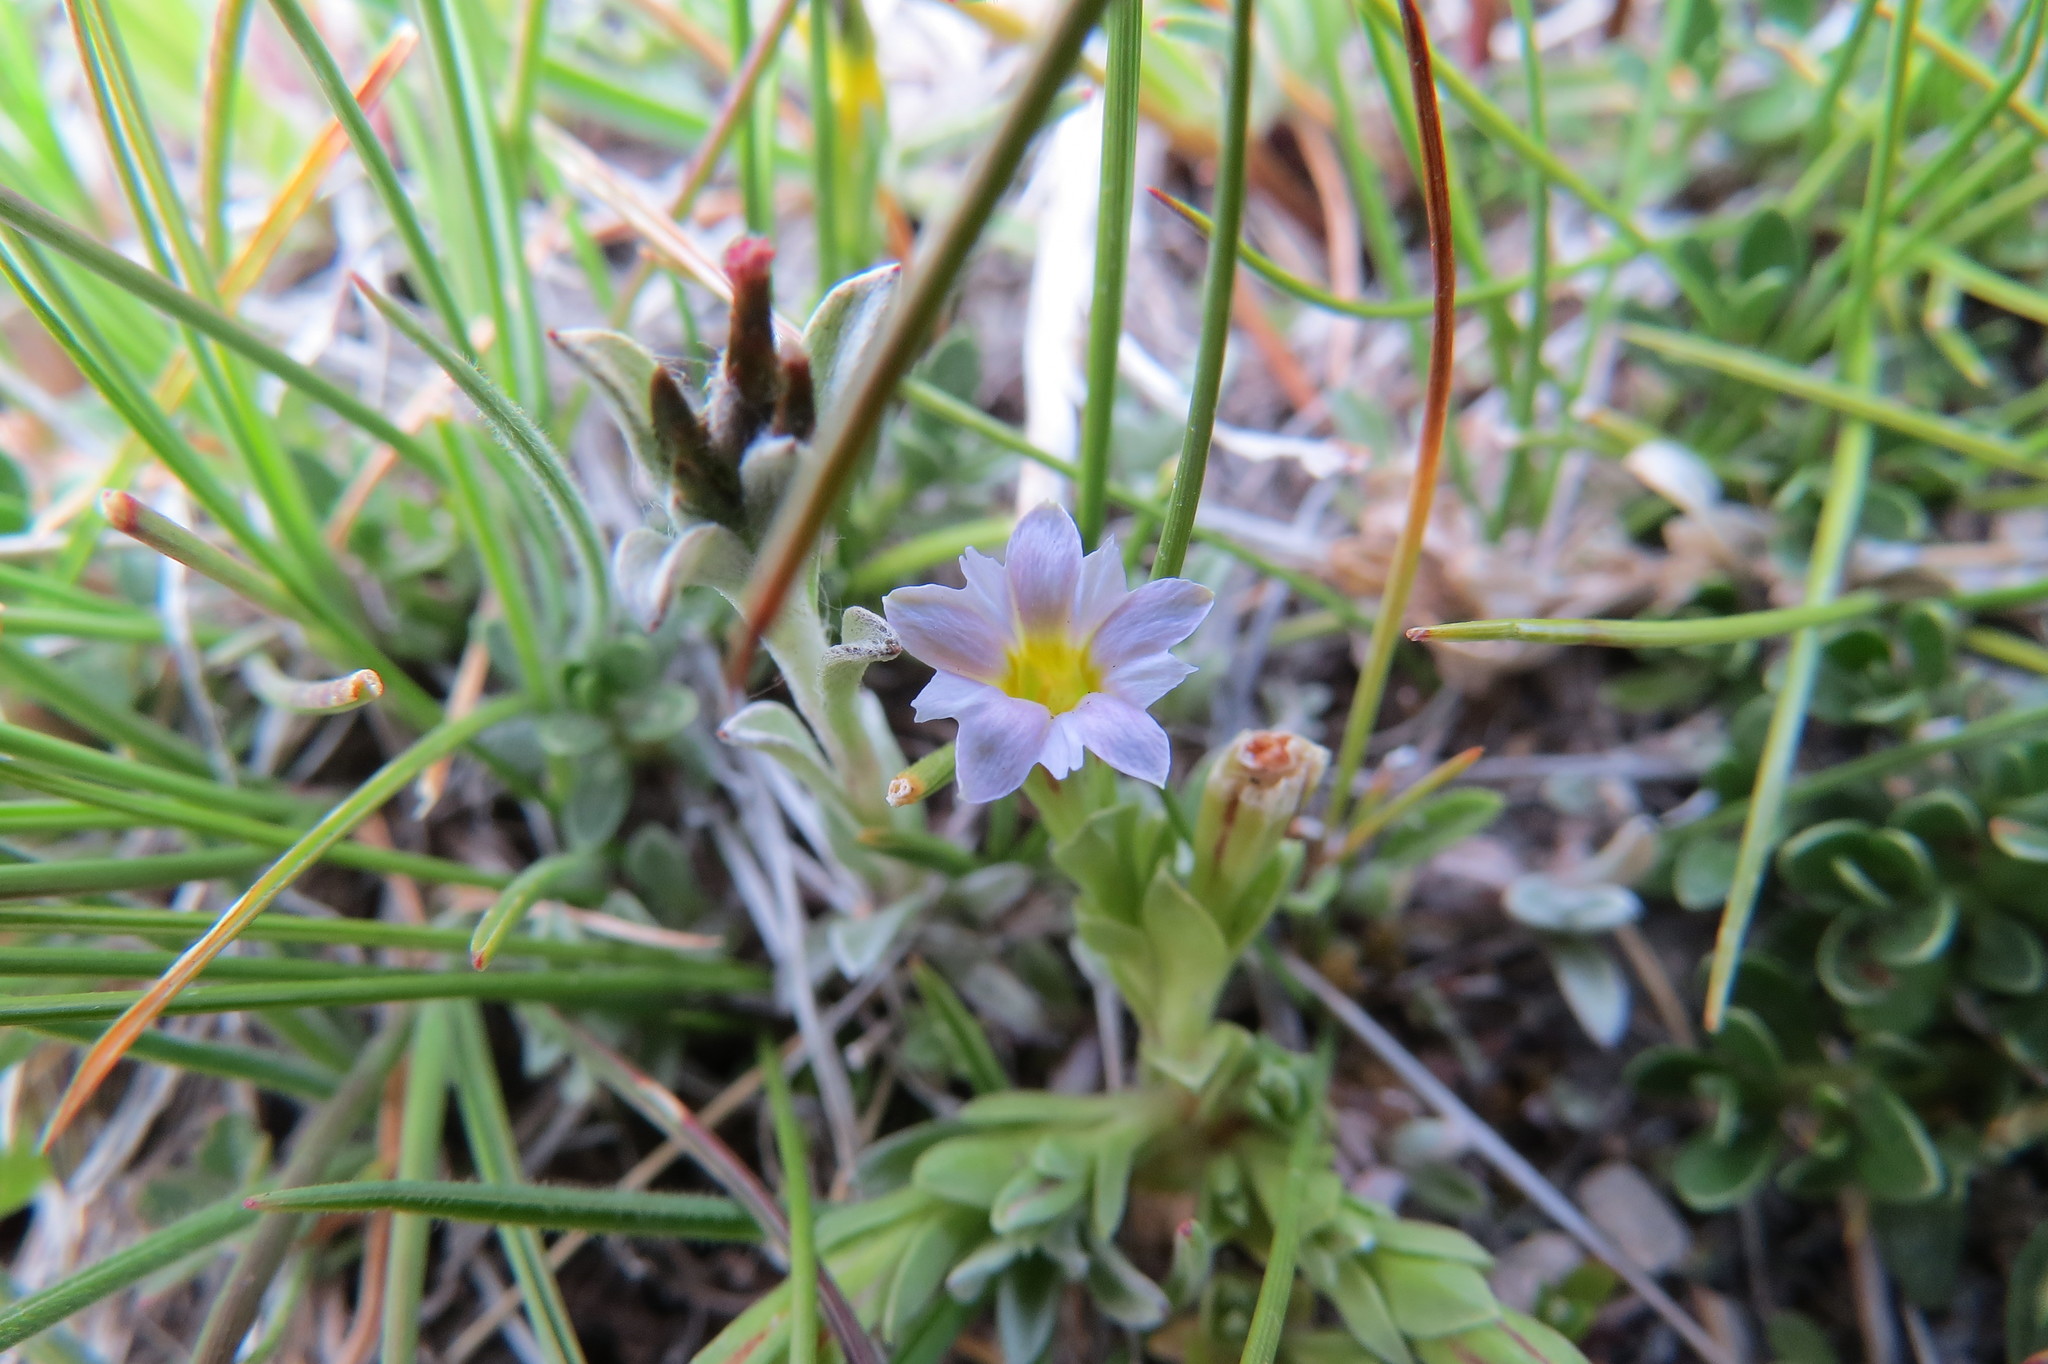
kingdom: Plantae
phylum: Tracheophyta
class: Magnoliopsida
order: Gentianales
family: Gentianaceae
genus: Gentiana
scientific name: Gentiana prostrata
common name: Moss gentian
